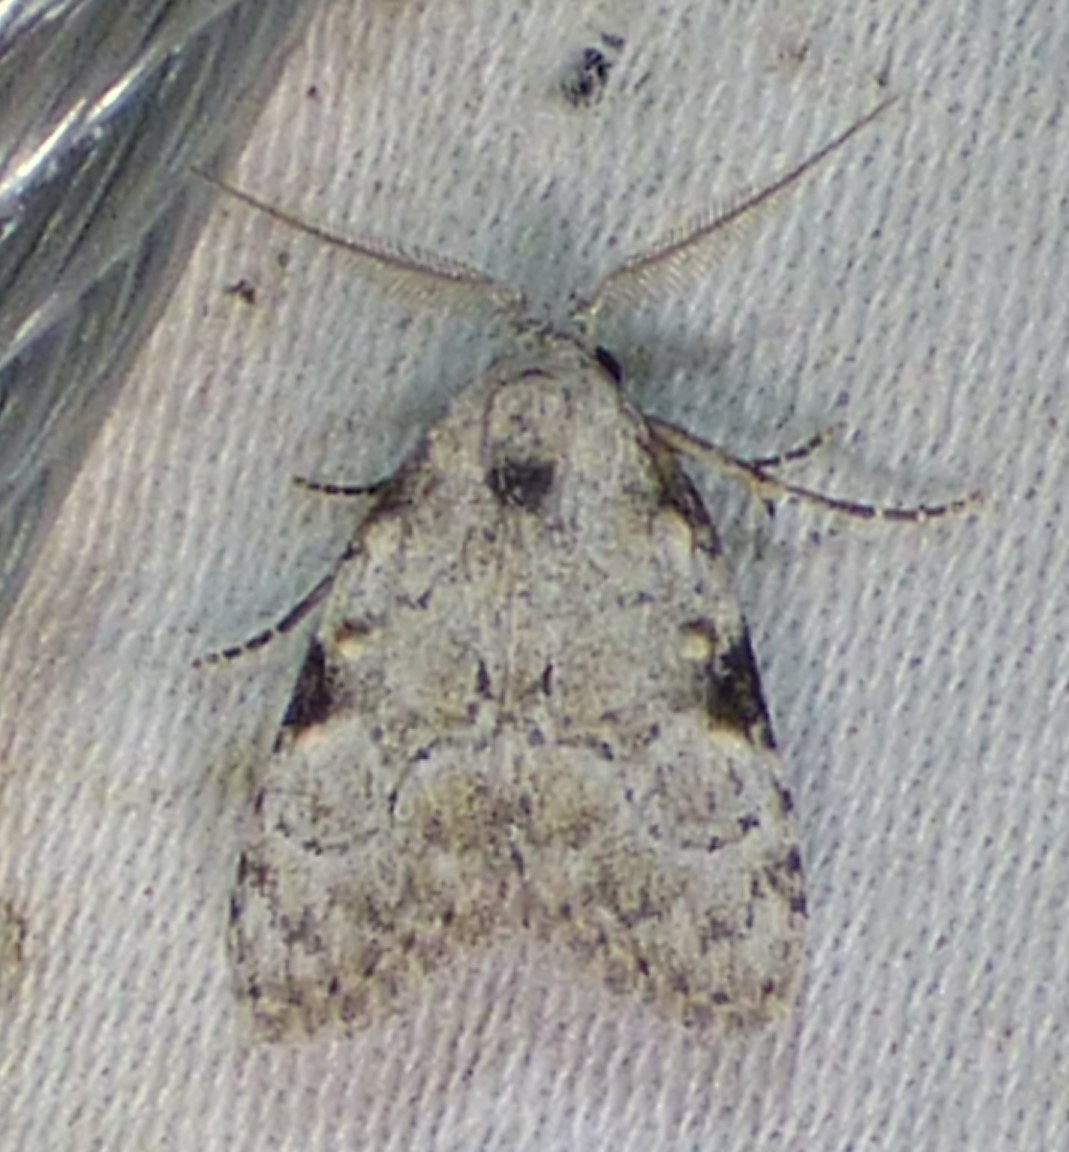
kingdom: Animalia
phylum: Arthropoda
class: Insecta
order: Lepidoptera
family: Nolidae
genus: Meganola
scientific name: Meganola minuscula
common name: Confused meganola moth
